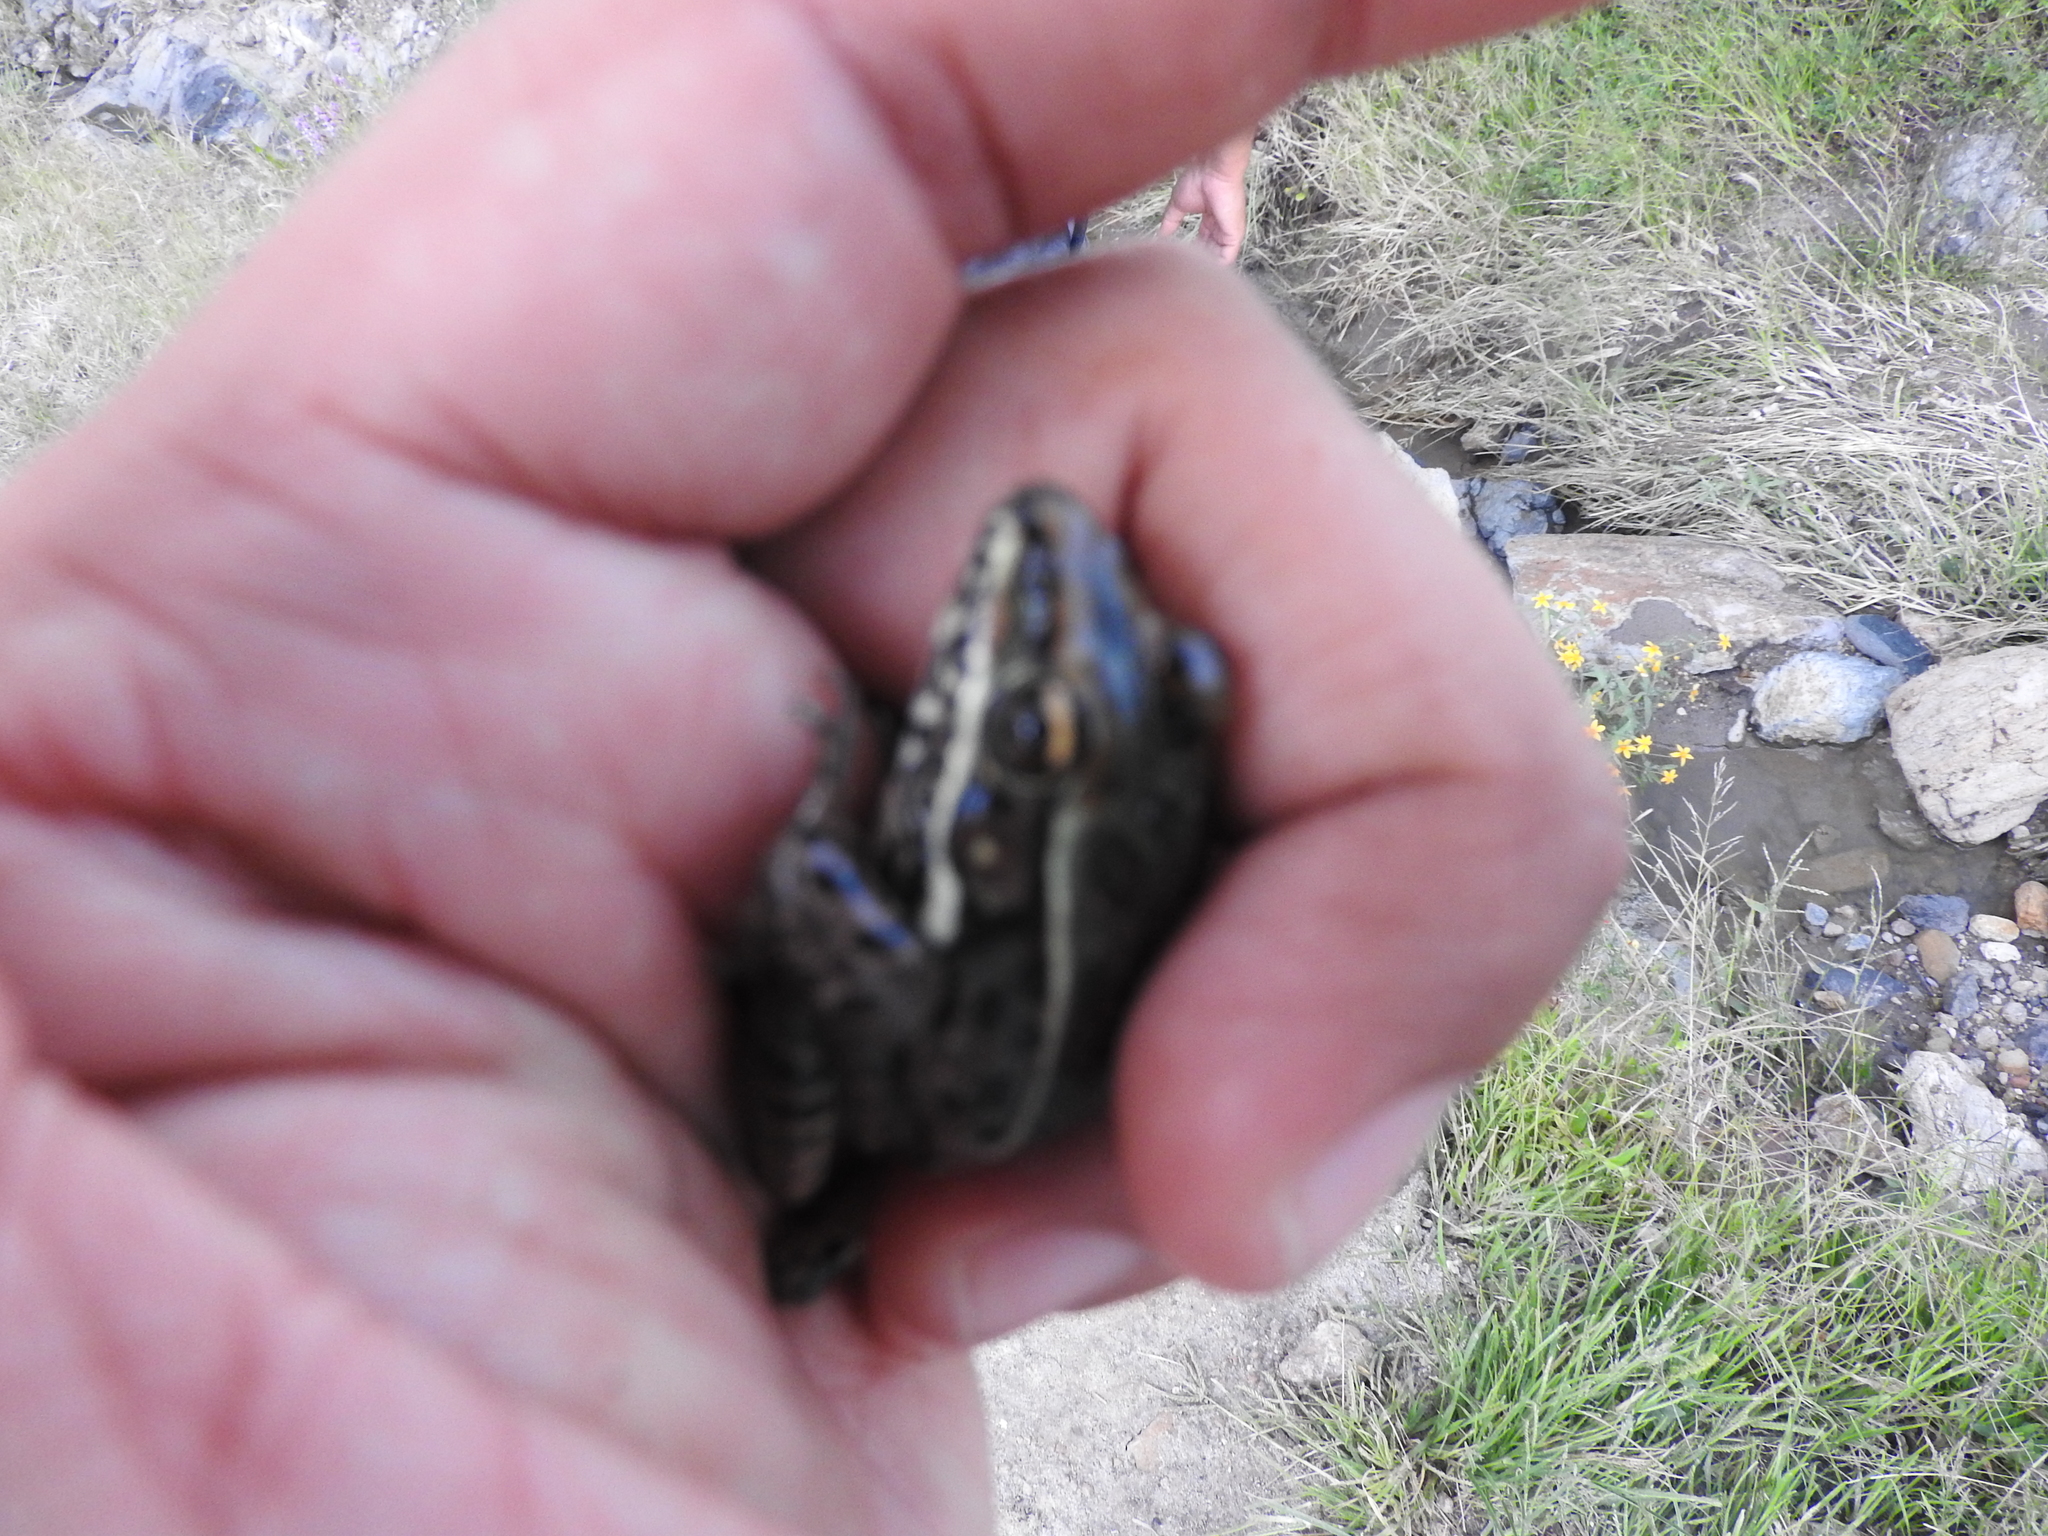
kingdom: Animalia
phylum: Chordata
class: Amphibia
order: Anura
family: Ranidae
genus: Lithobates
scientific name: Lithobates neovolcanicus
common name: Transverse volcanic leopard frog
